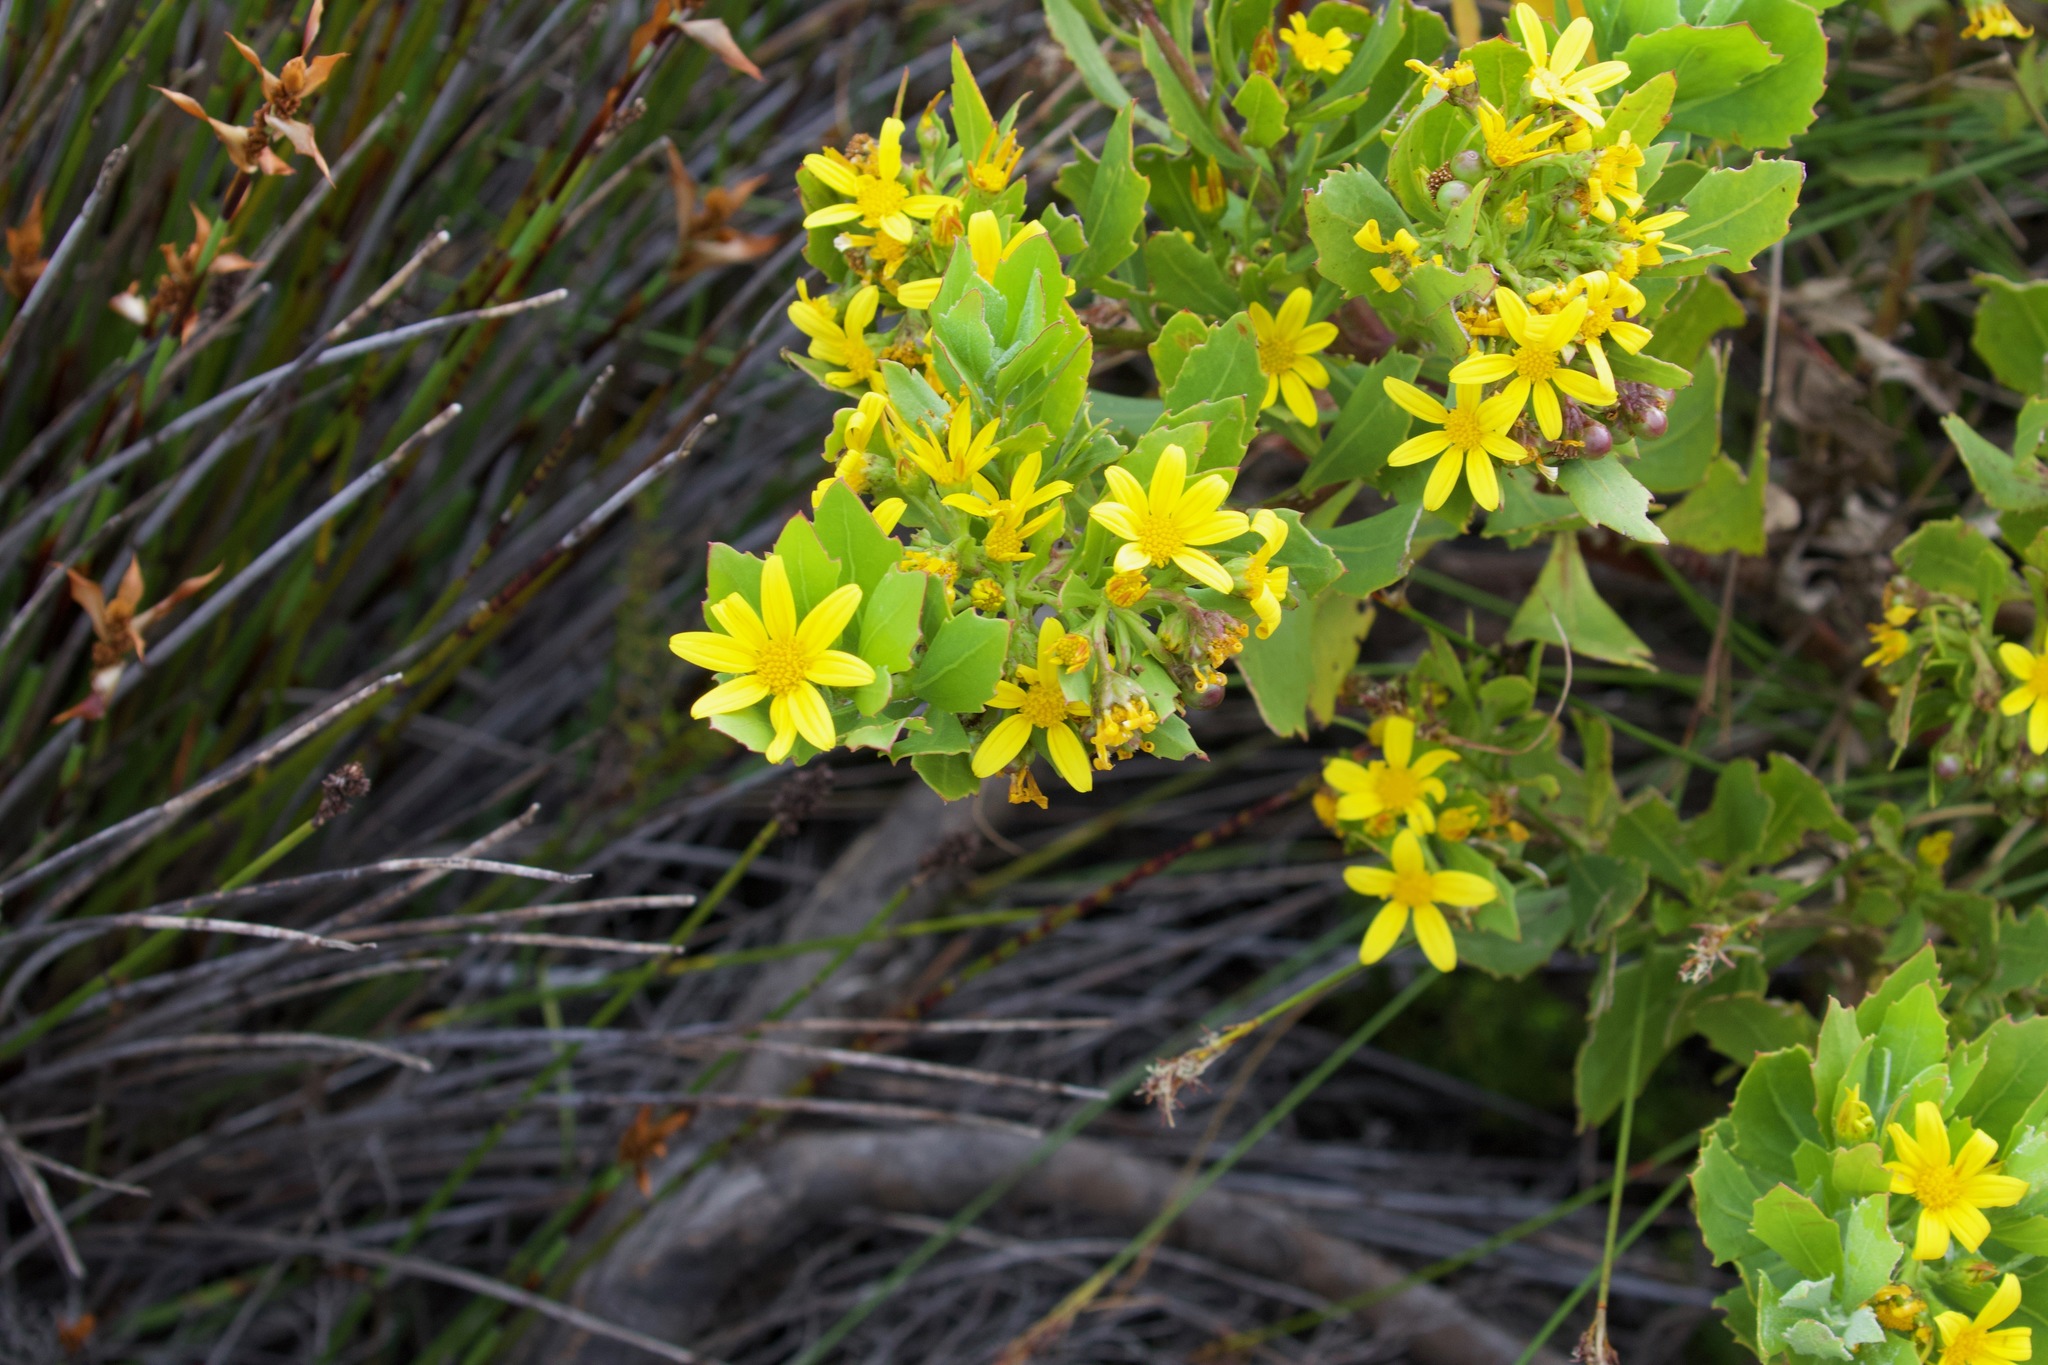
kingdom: Plantae
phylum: Tracheophyta
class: Magnoliopsida
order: Asterales
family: Asteraceae
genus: Osteospermum
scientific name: Osteospermum moniliferum
